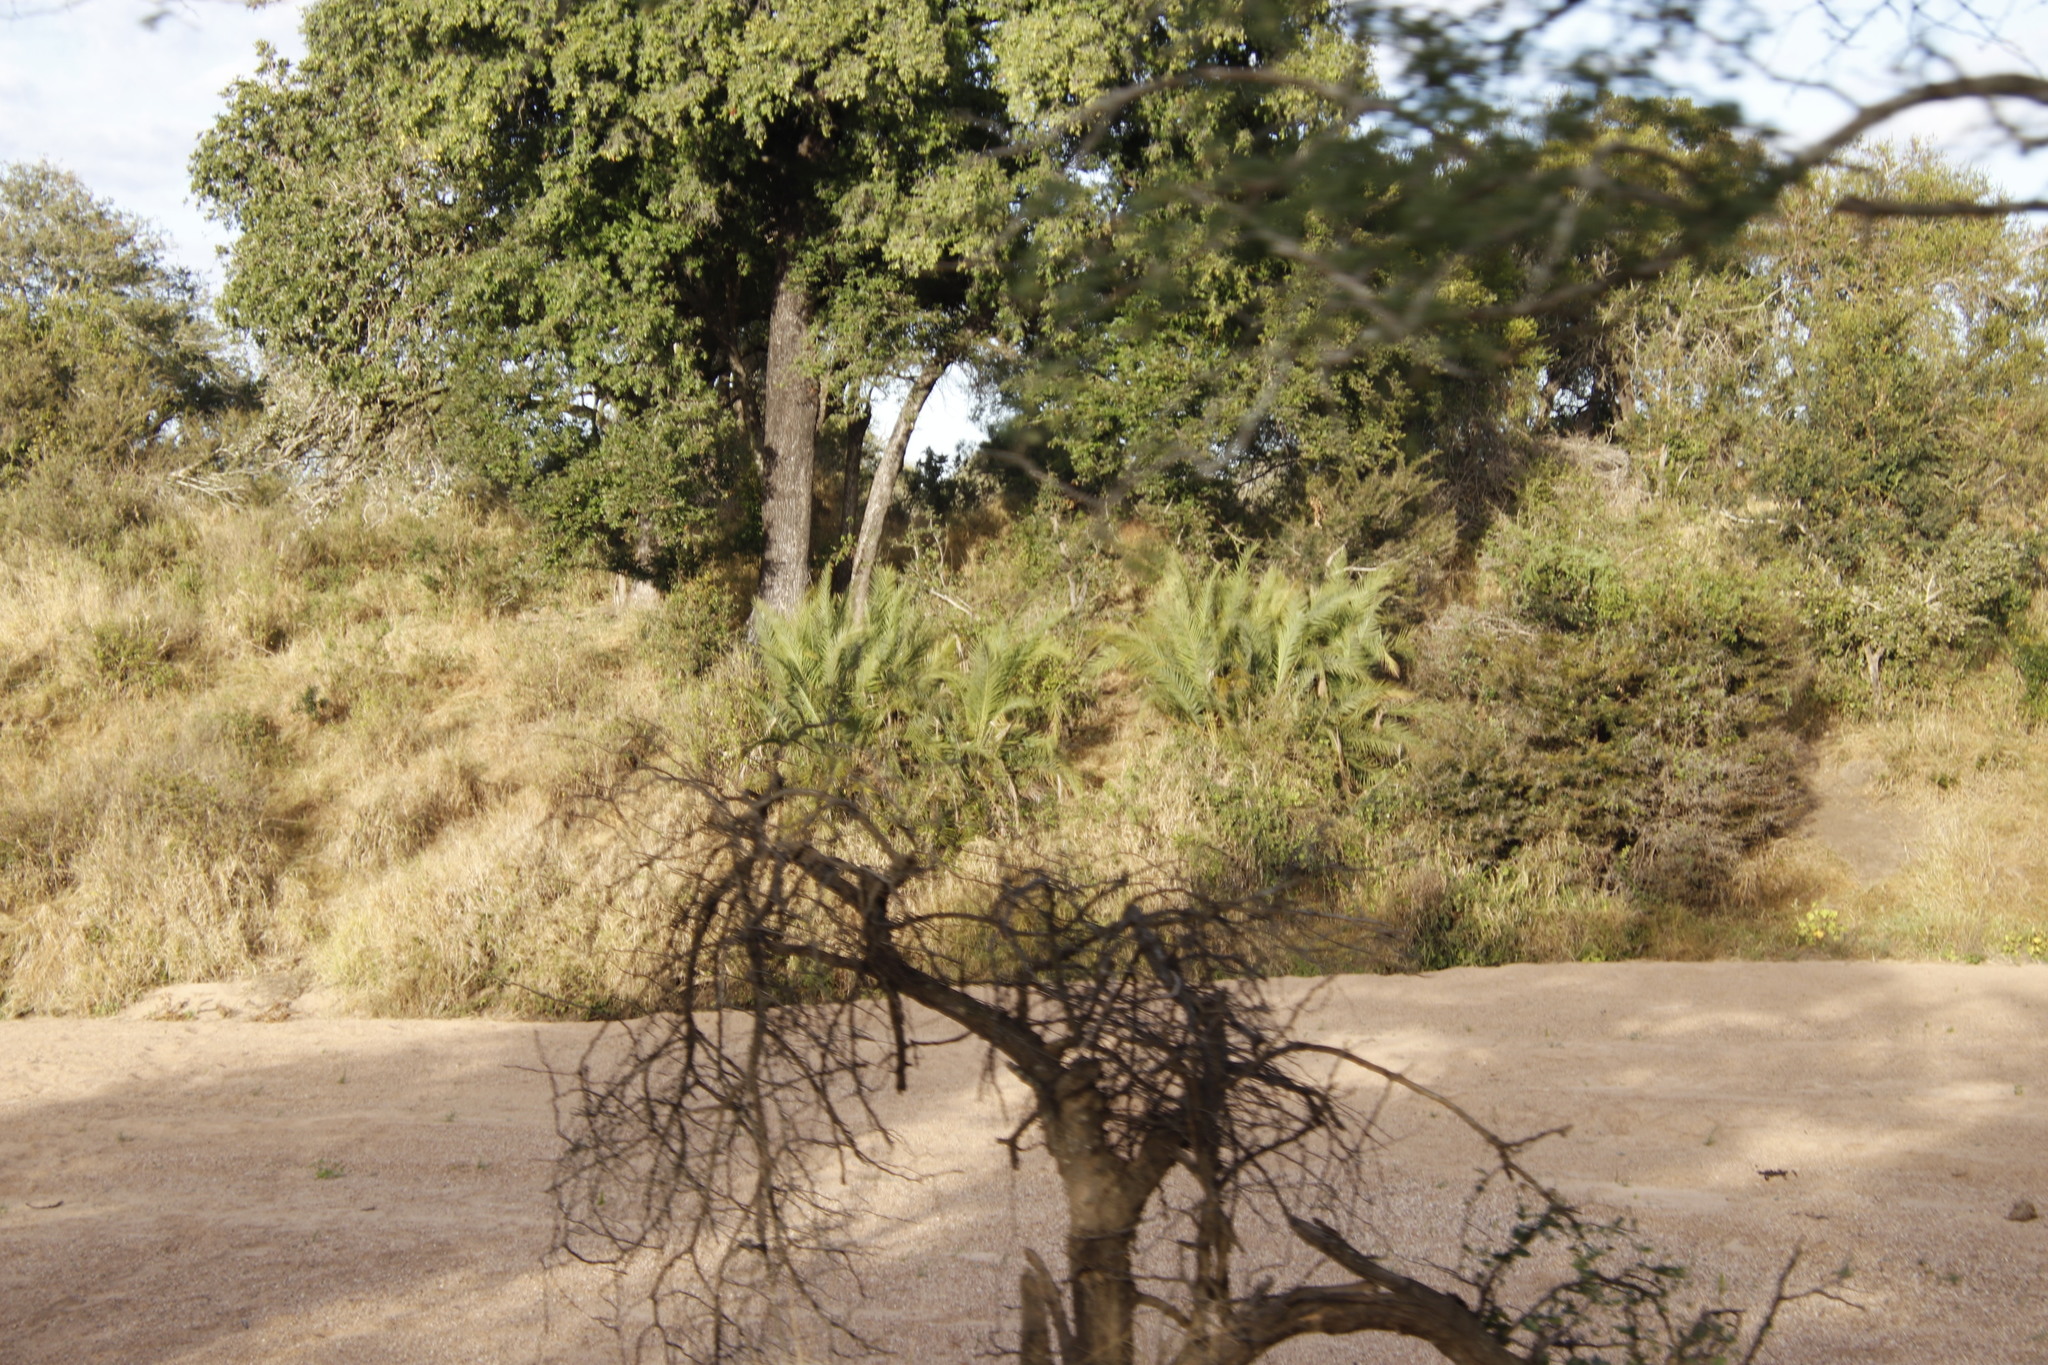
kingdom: Plantae
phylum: Tracheophyta
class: Liliopsida
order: Arecales
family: Arecaceae
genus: Phoenix
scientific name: Phoenix reclinata
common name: Senegal date palm
